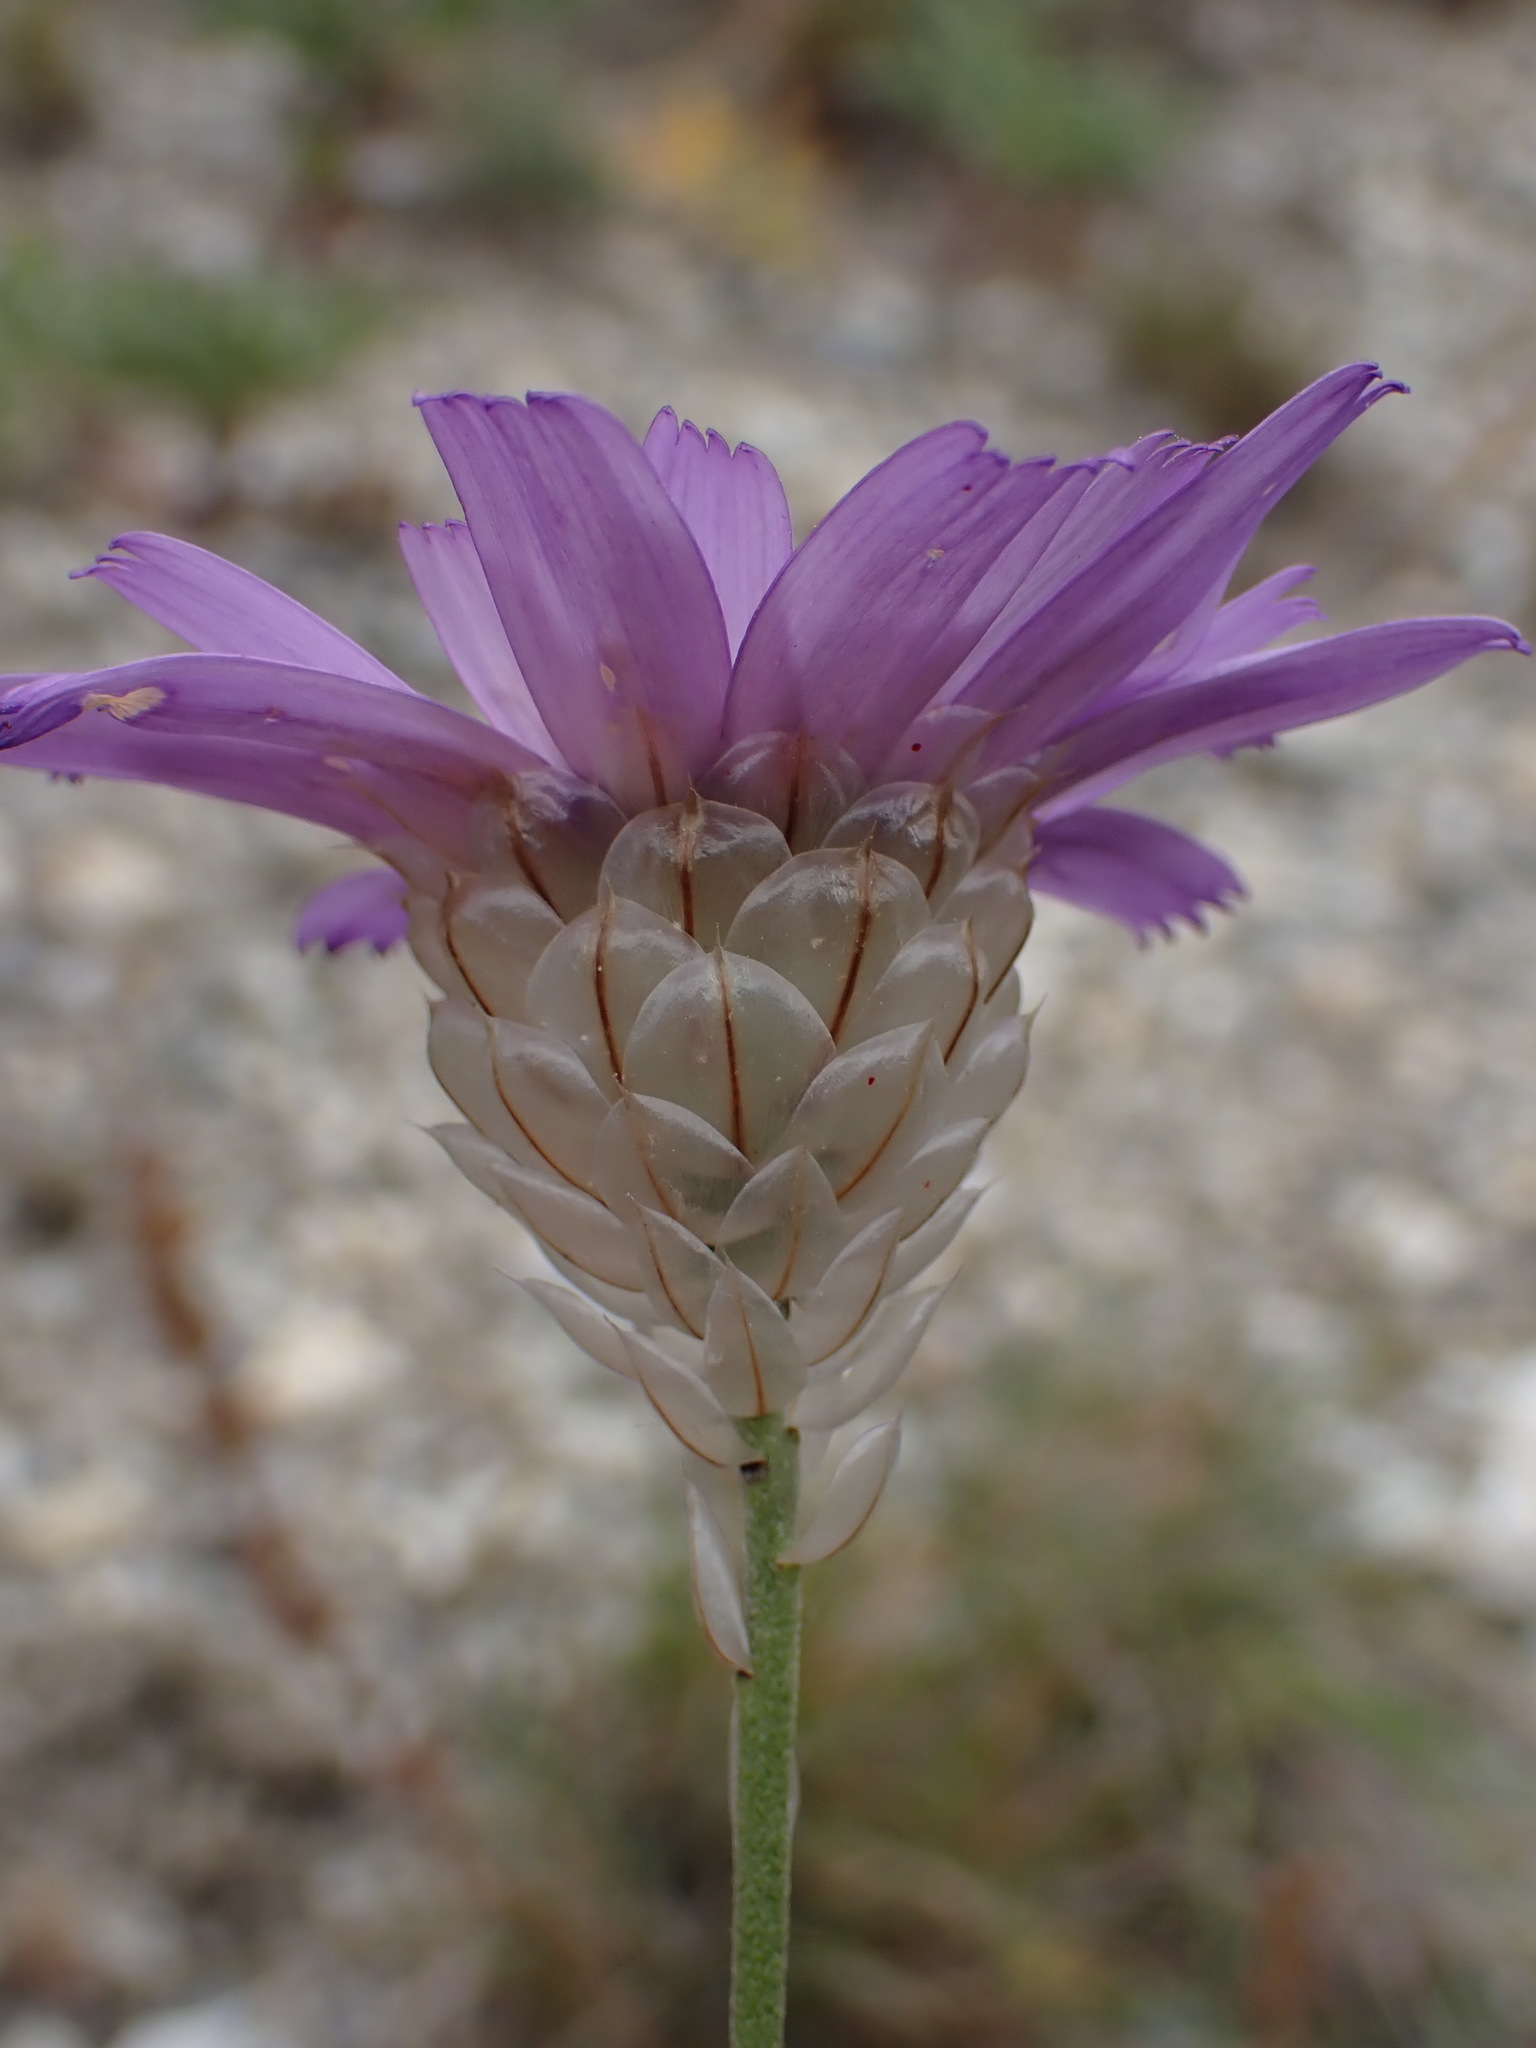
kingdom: Plantae
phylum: Tracheophyta
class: Magnoliopsida
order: Asterales
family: Asteraceae
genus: Catananche
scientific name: Catananche caerulea
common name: Blue cupidone
